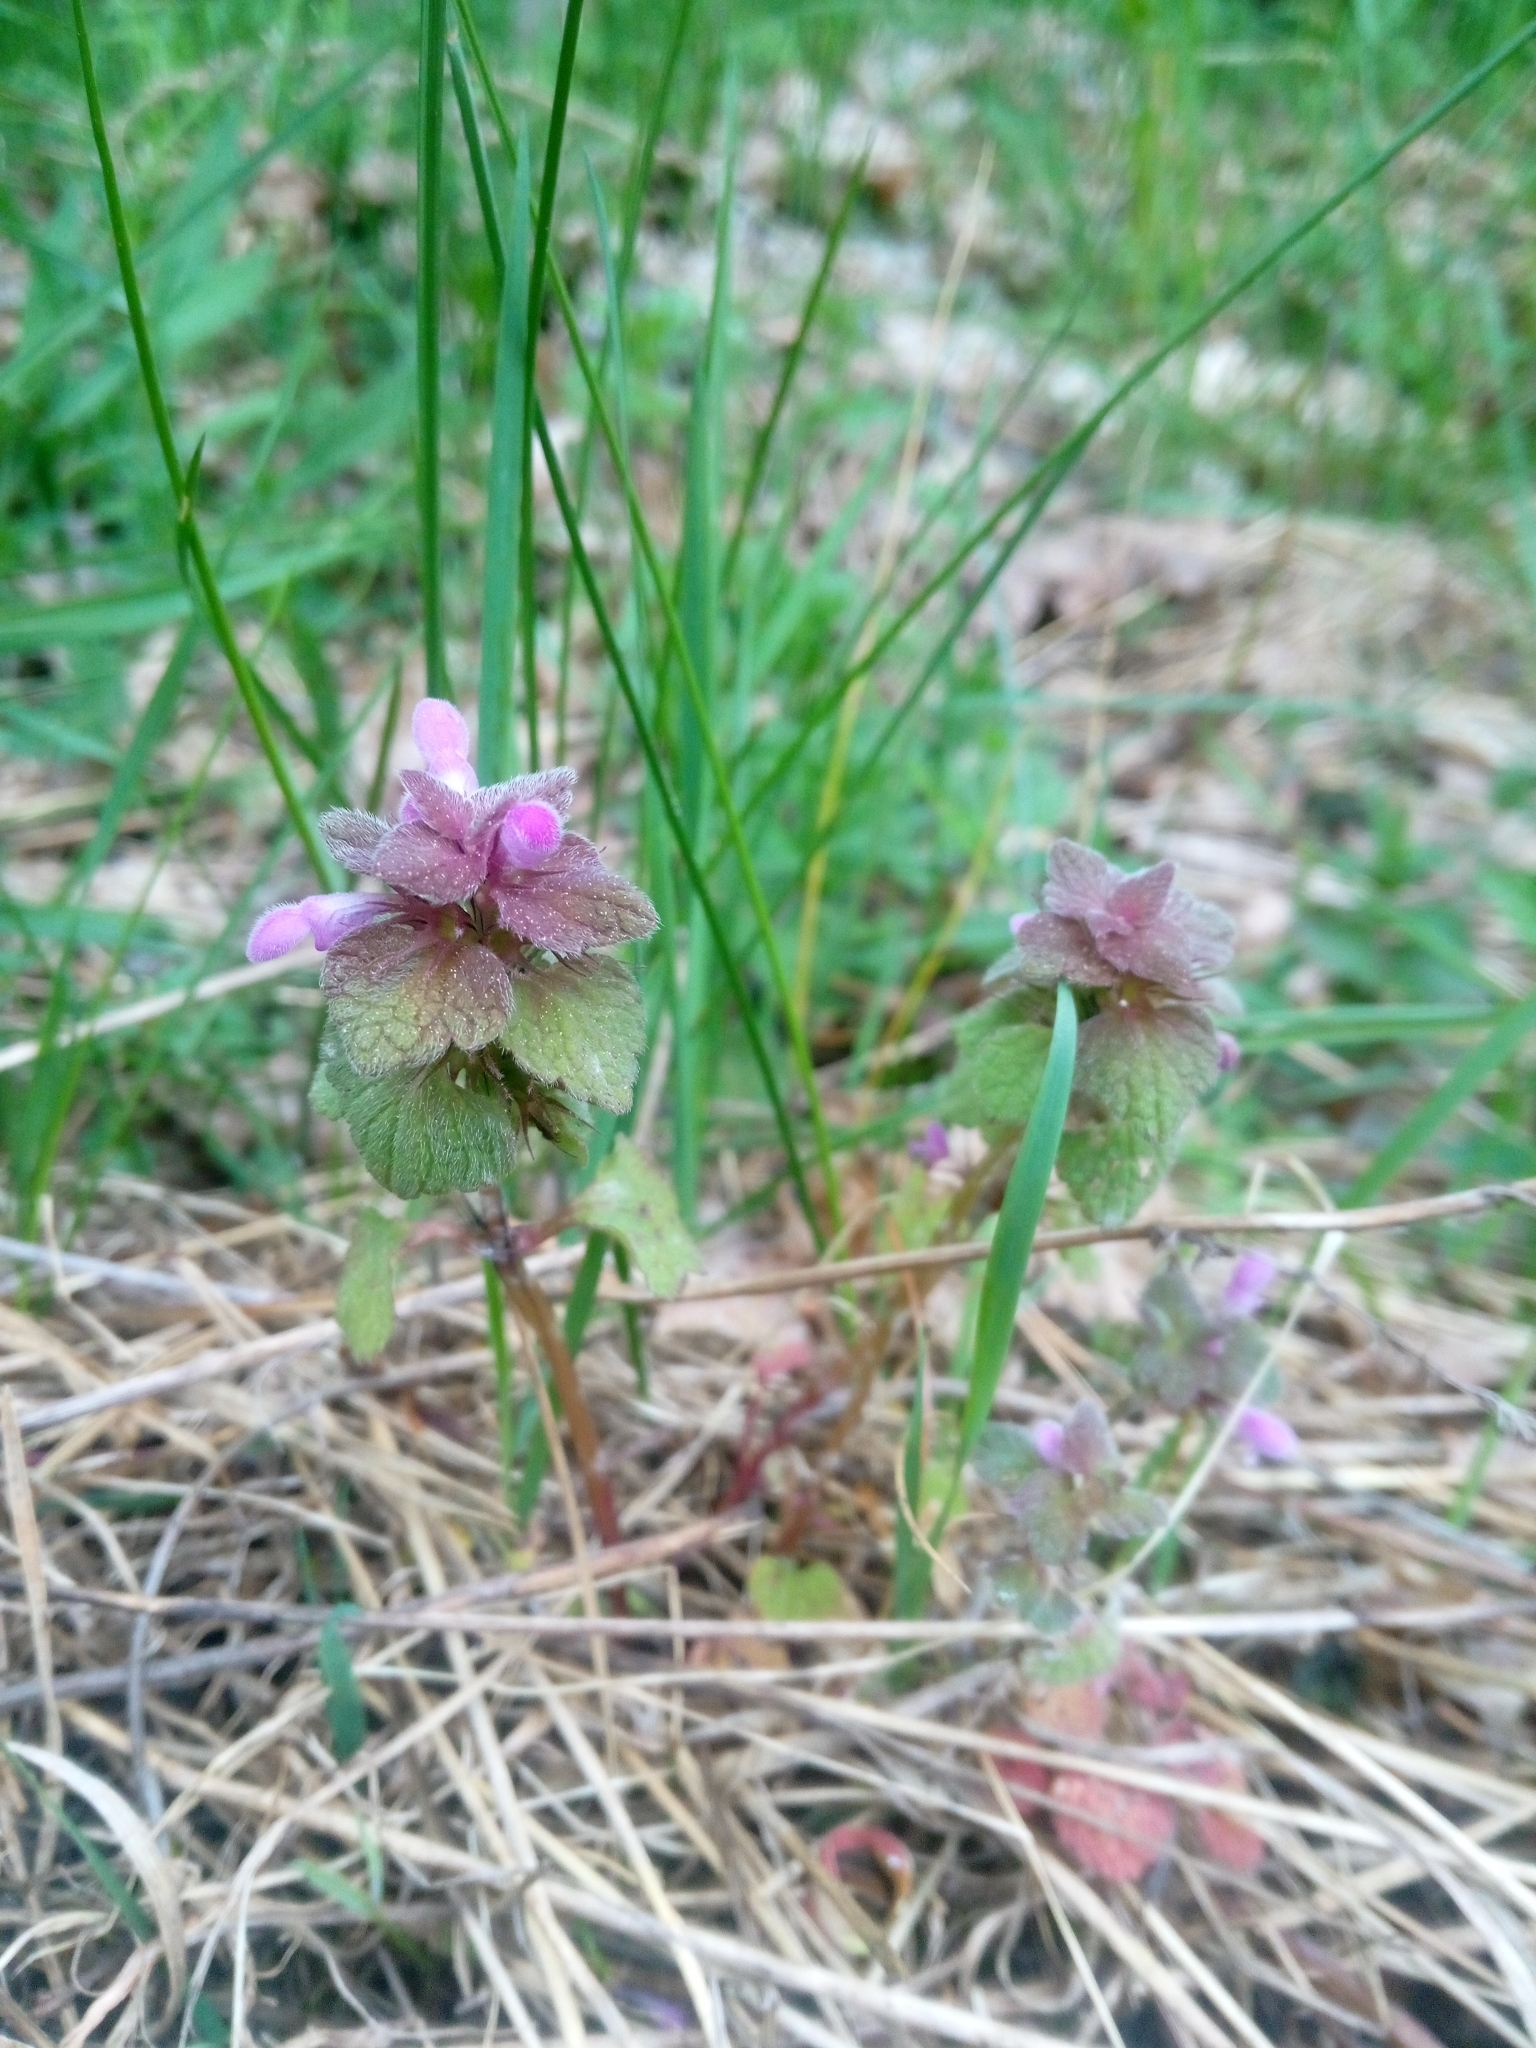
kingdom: Plantae
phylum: Tracheophyta
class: Magnoliopsida
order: Lamiales
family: Lamiaceae
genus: Lamium
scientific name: Lamium purpureum
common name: Red dead-nettle
